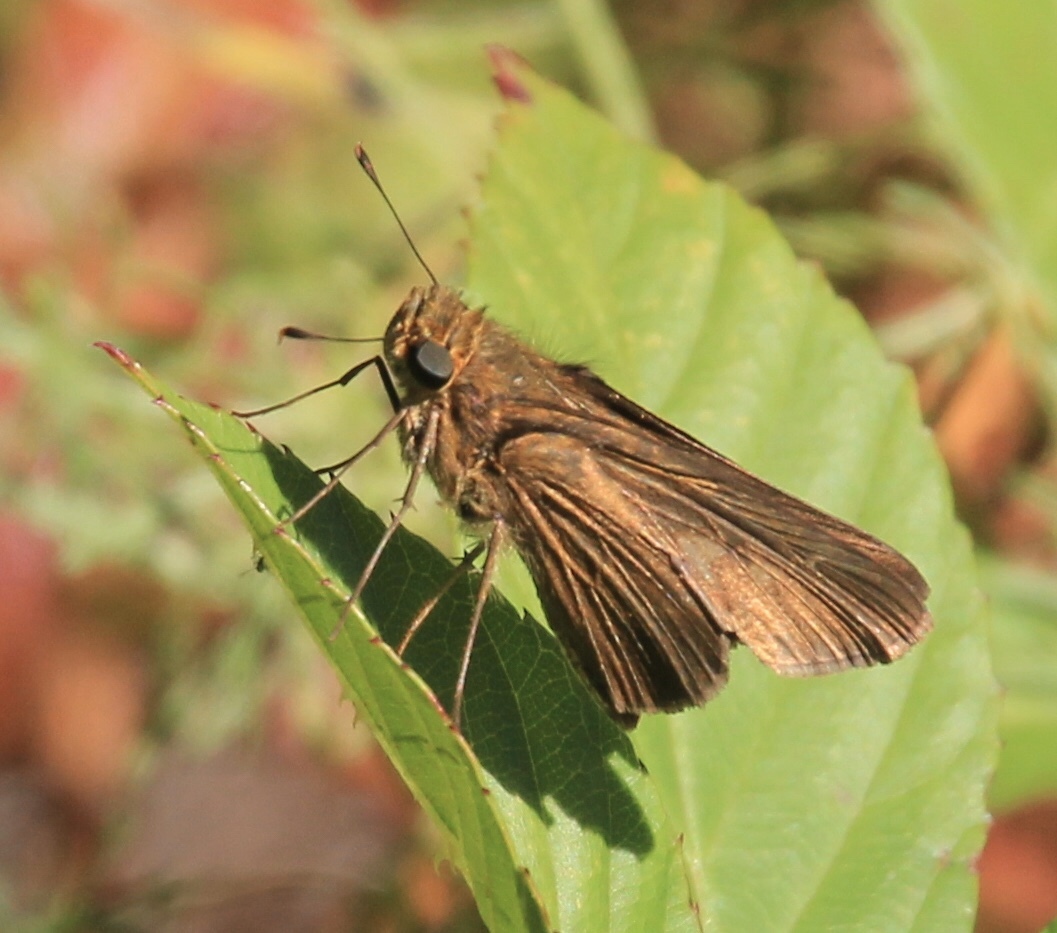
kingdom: Animalia
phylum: Arthropoda
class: Insecta
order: Lepidoptera
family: Hesperiidae
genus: Panoquina
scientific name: Panoquina ocola
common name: Ocola skipper
